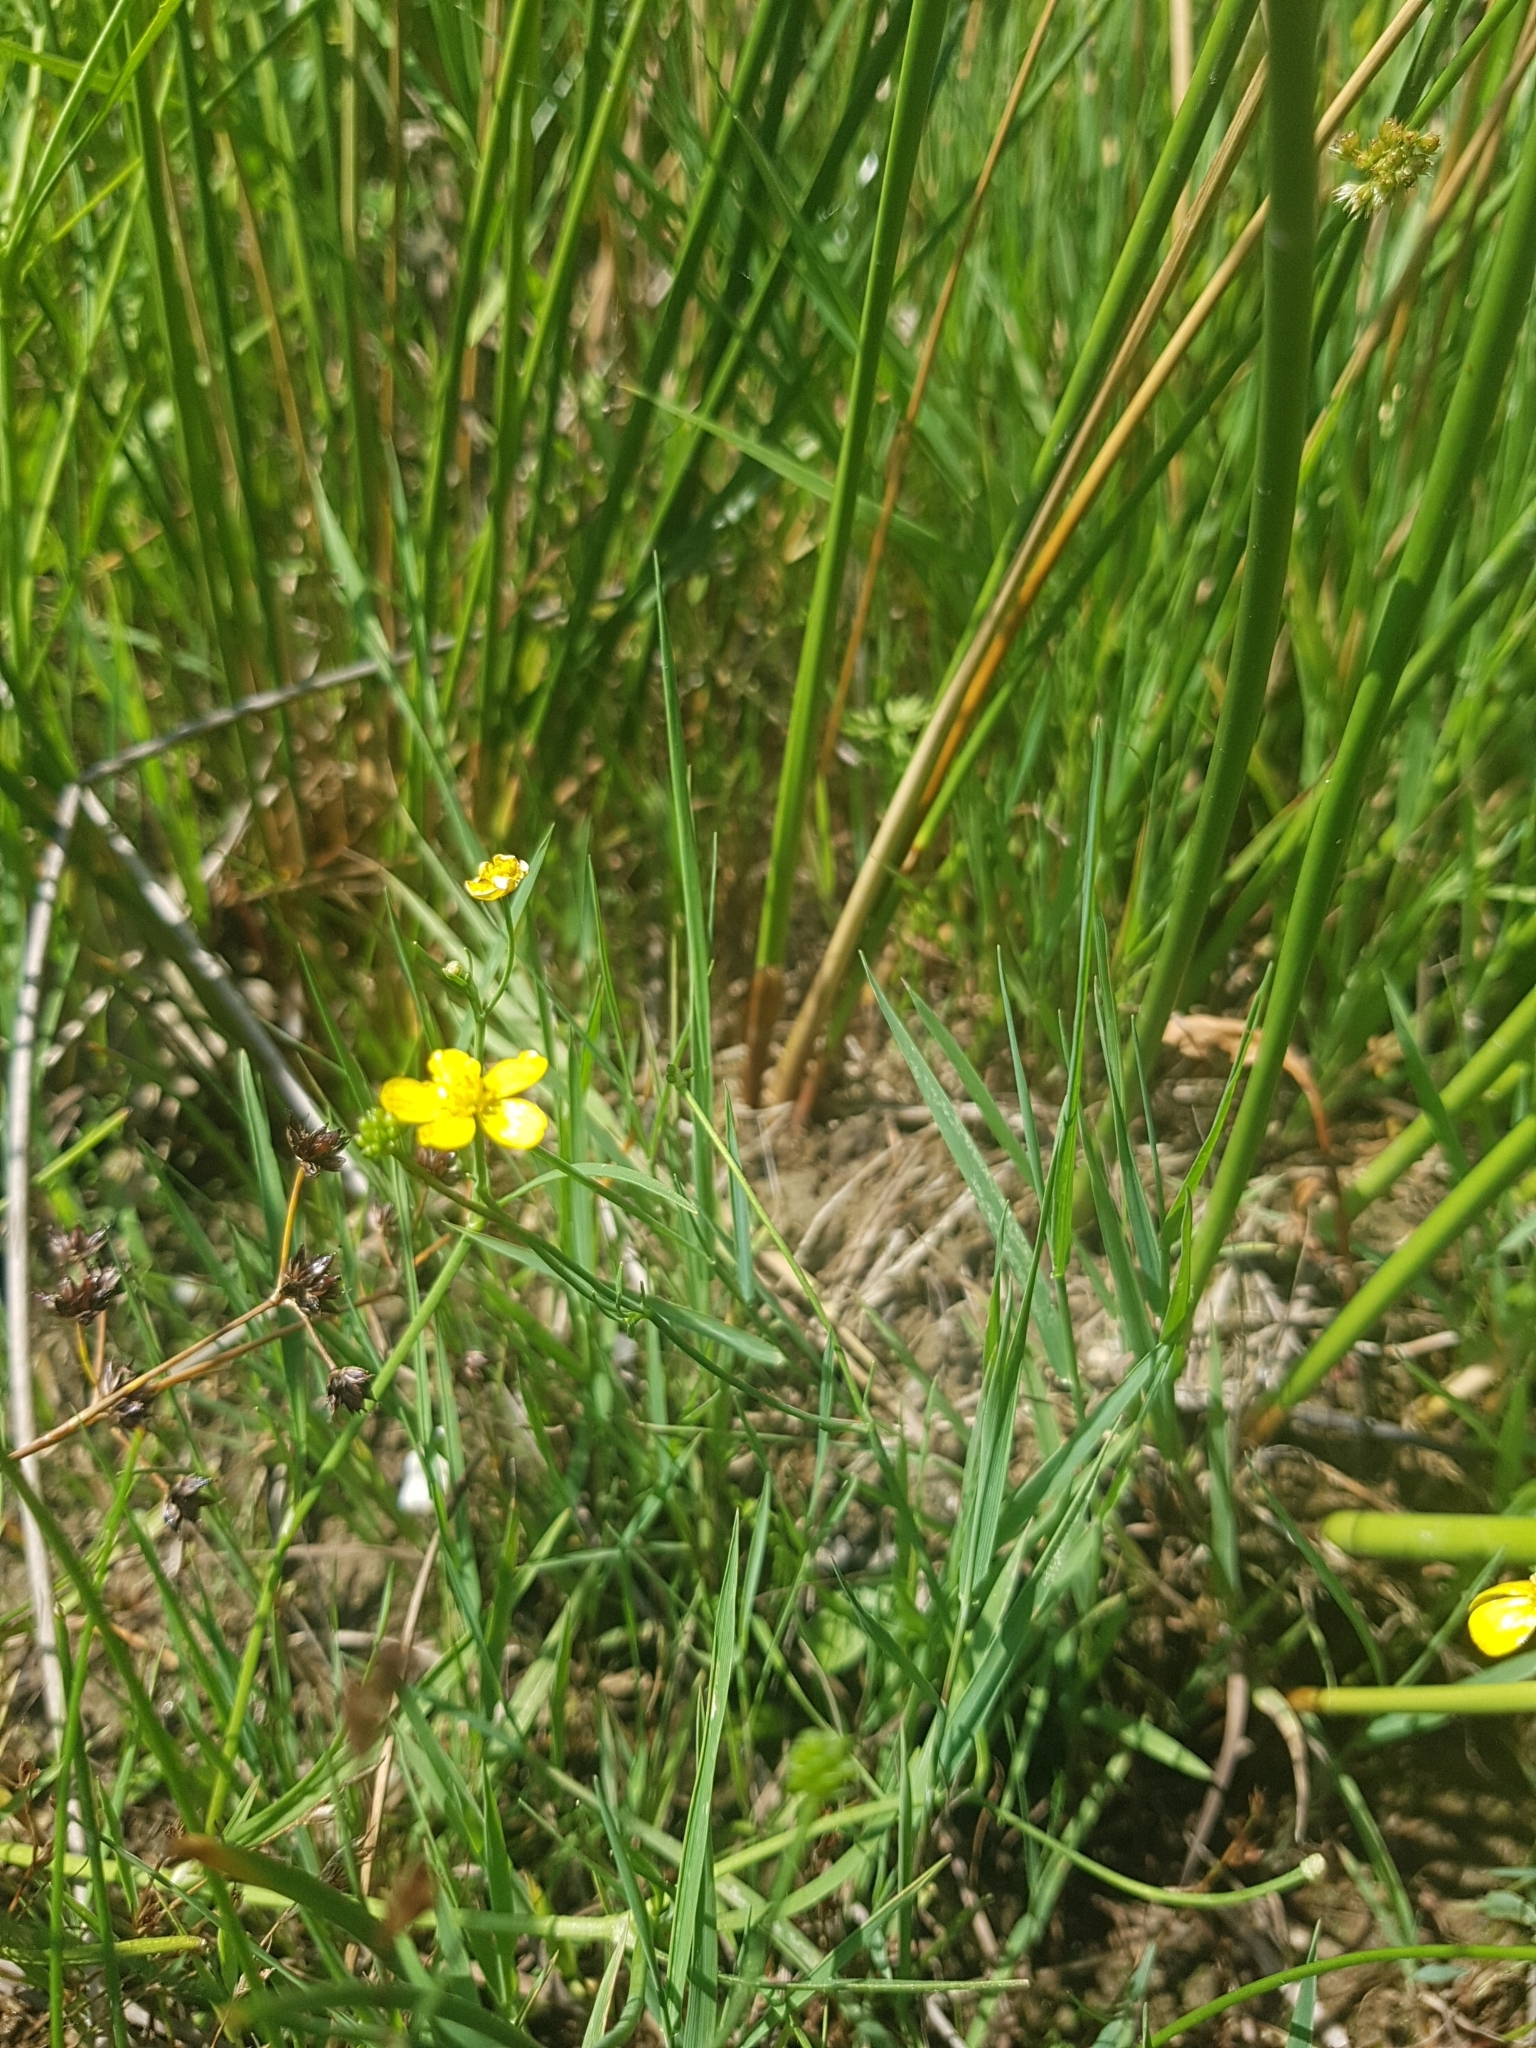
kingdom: Plantae
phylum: Tracheophyta
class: Magnoliopsida
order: Ranunculales
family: Ranunculaceae
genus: Ranunculus
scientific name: Ranunculus flammula
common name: Lesser spearwort
